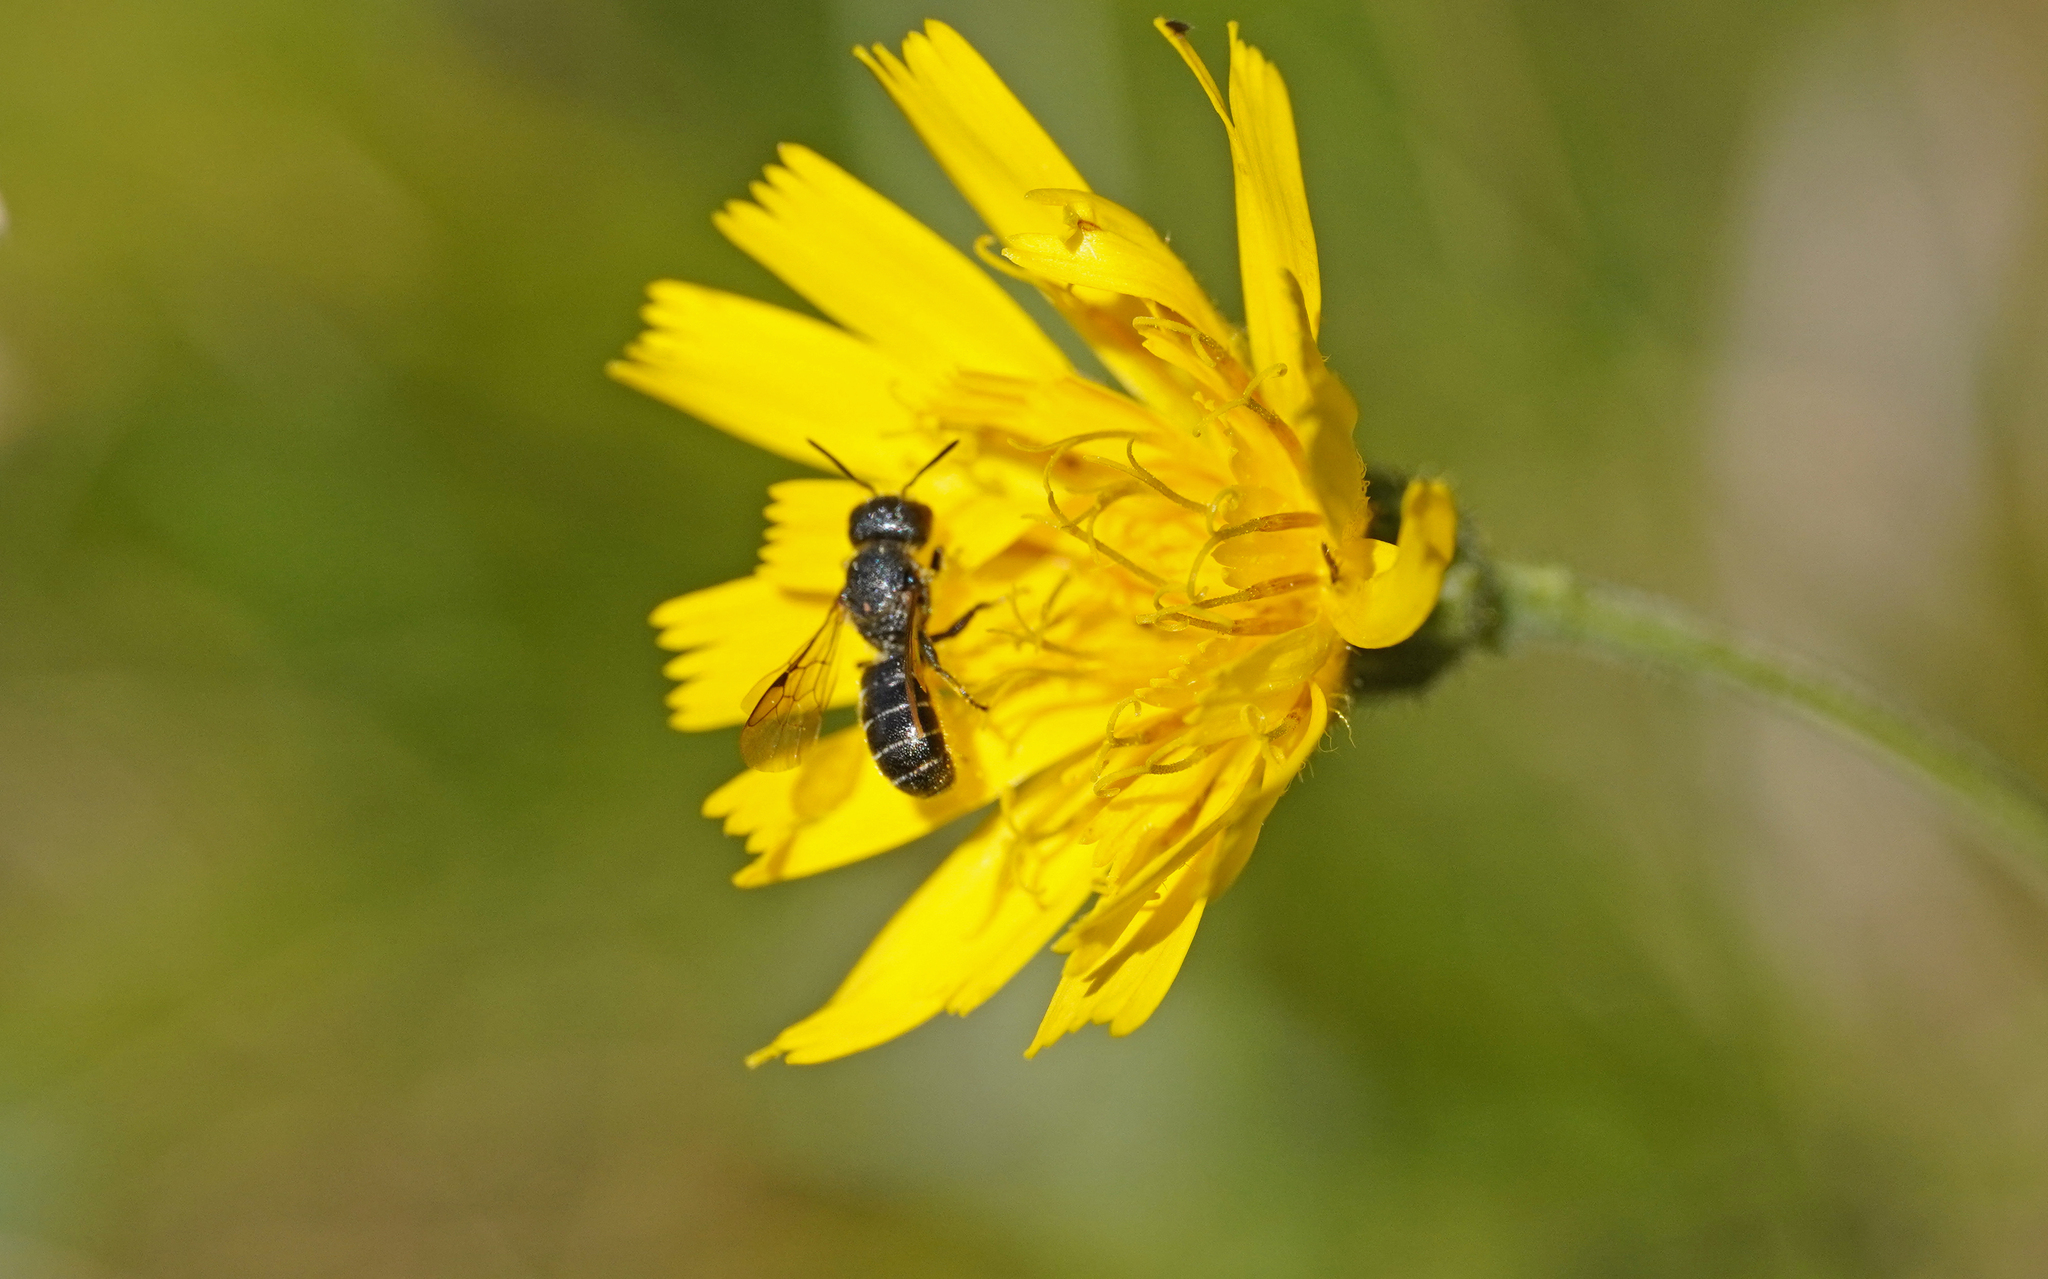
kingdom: Animalia
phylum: Arthropoda
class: Insecta
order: Hymenoptera
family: Megachilidae
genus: Heriades
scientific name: Heriades truncorum
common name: Ridge-saddled carpenter bee
